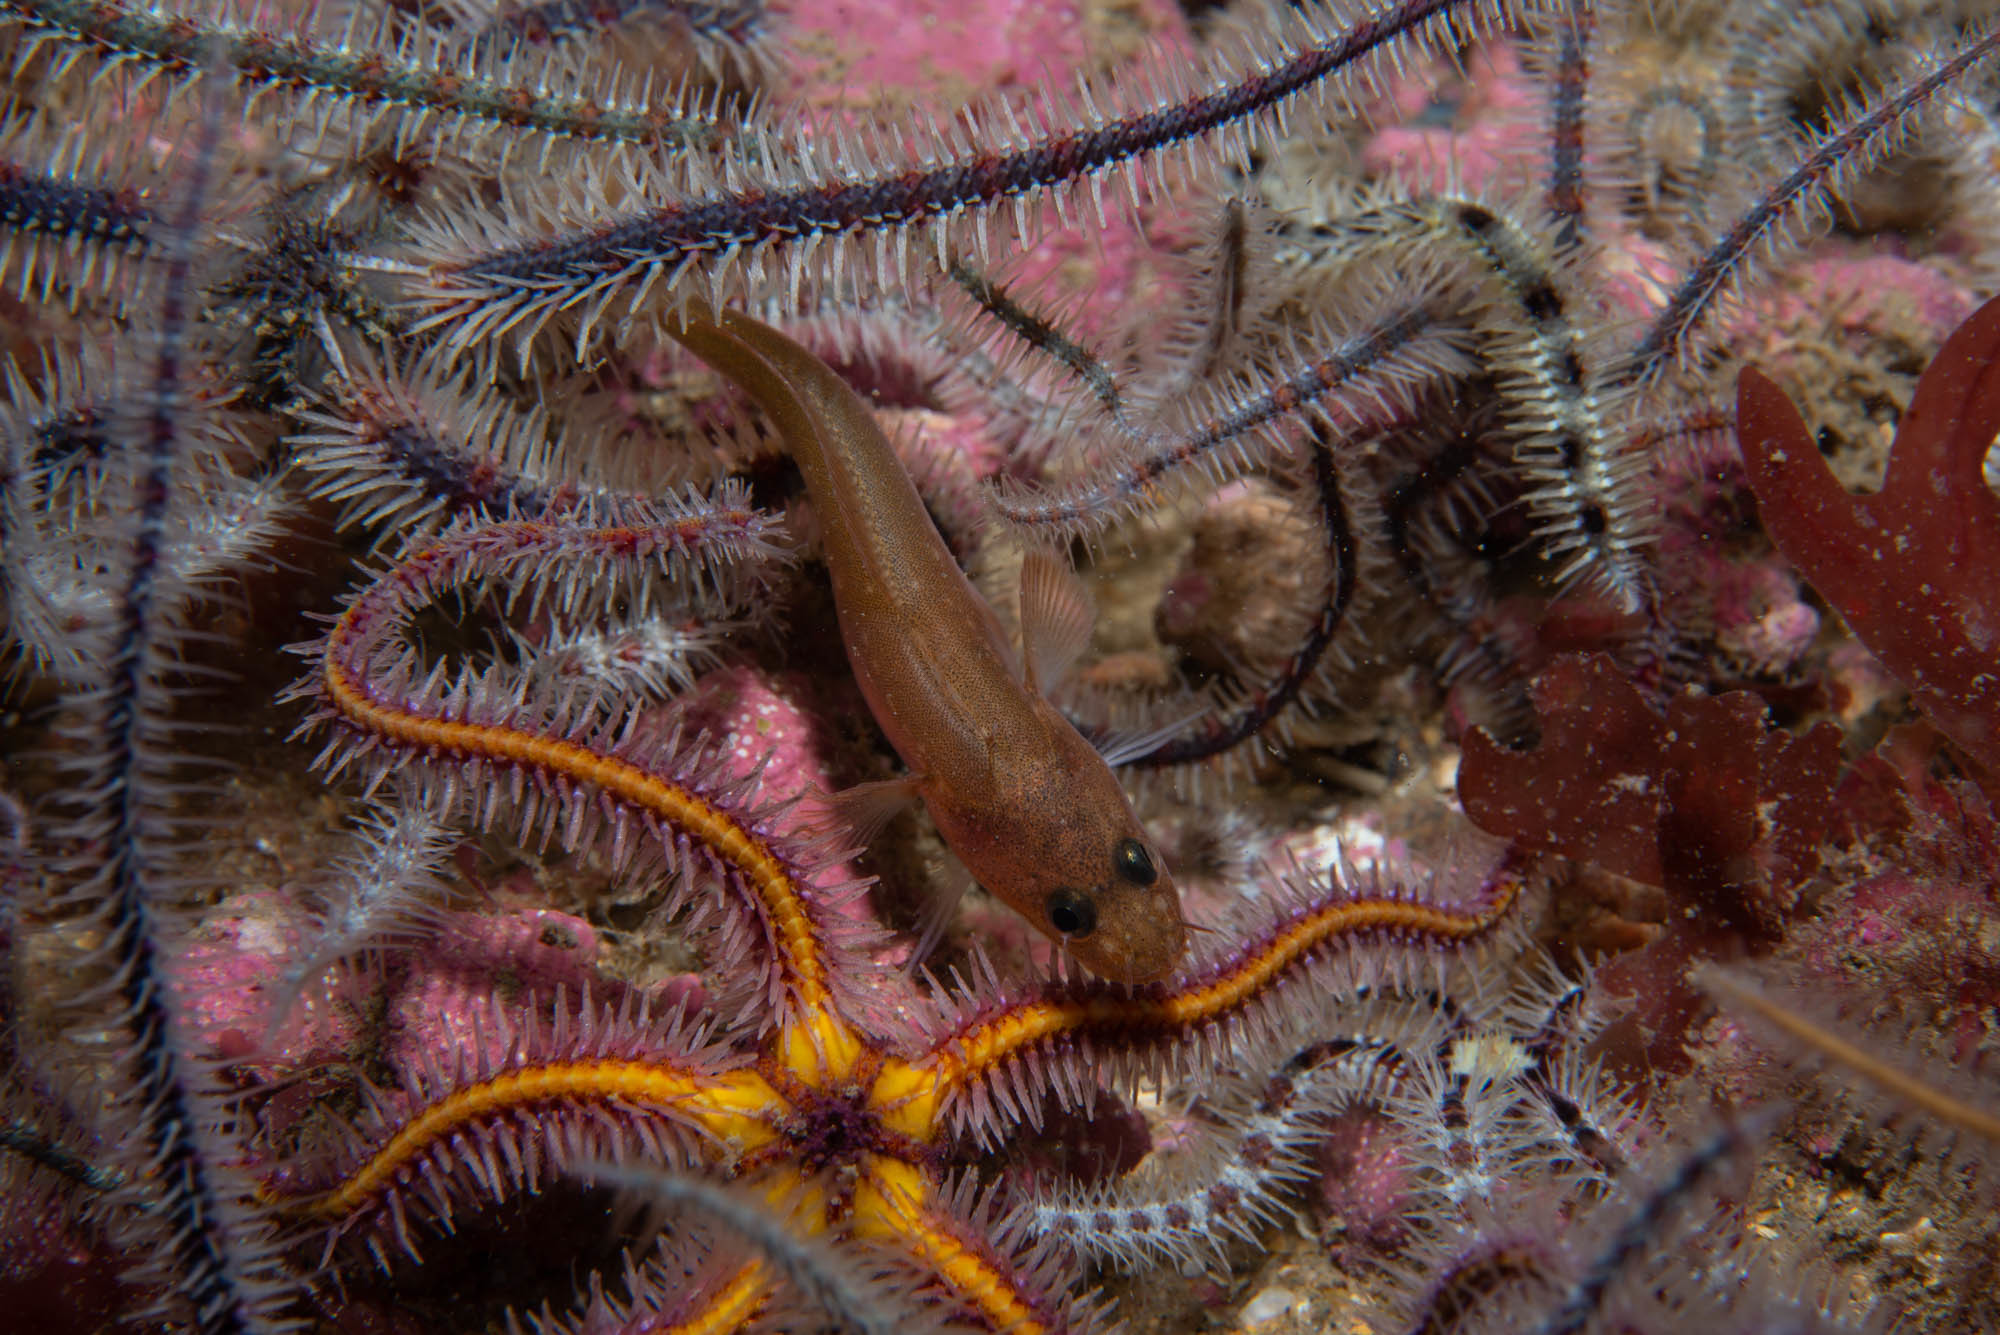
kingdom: Animalia
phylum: Chordata
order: Gadiformes
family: Lotidae
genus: Ciliata
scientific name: Ciliata septentrionalis
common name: Northern rockling
